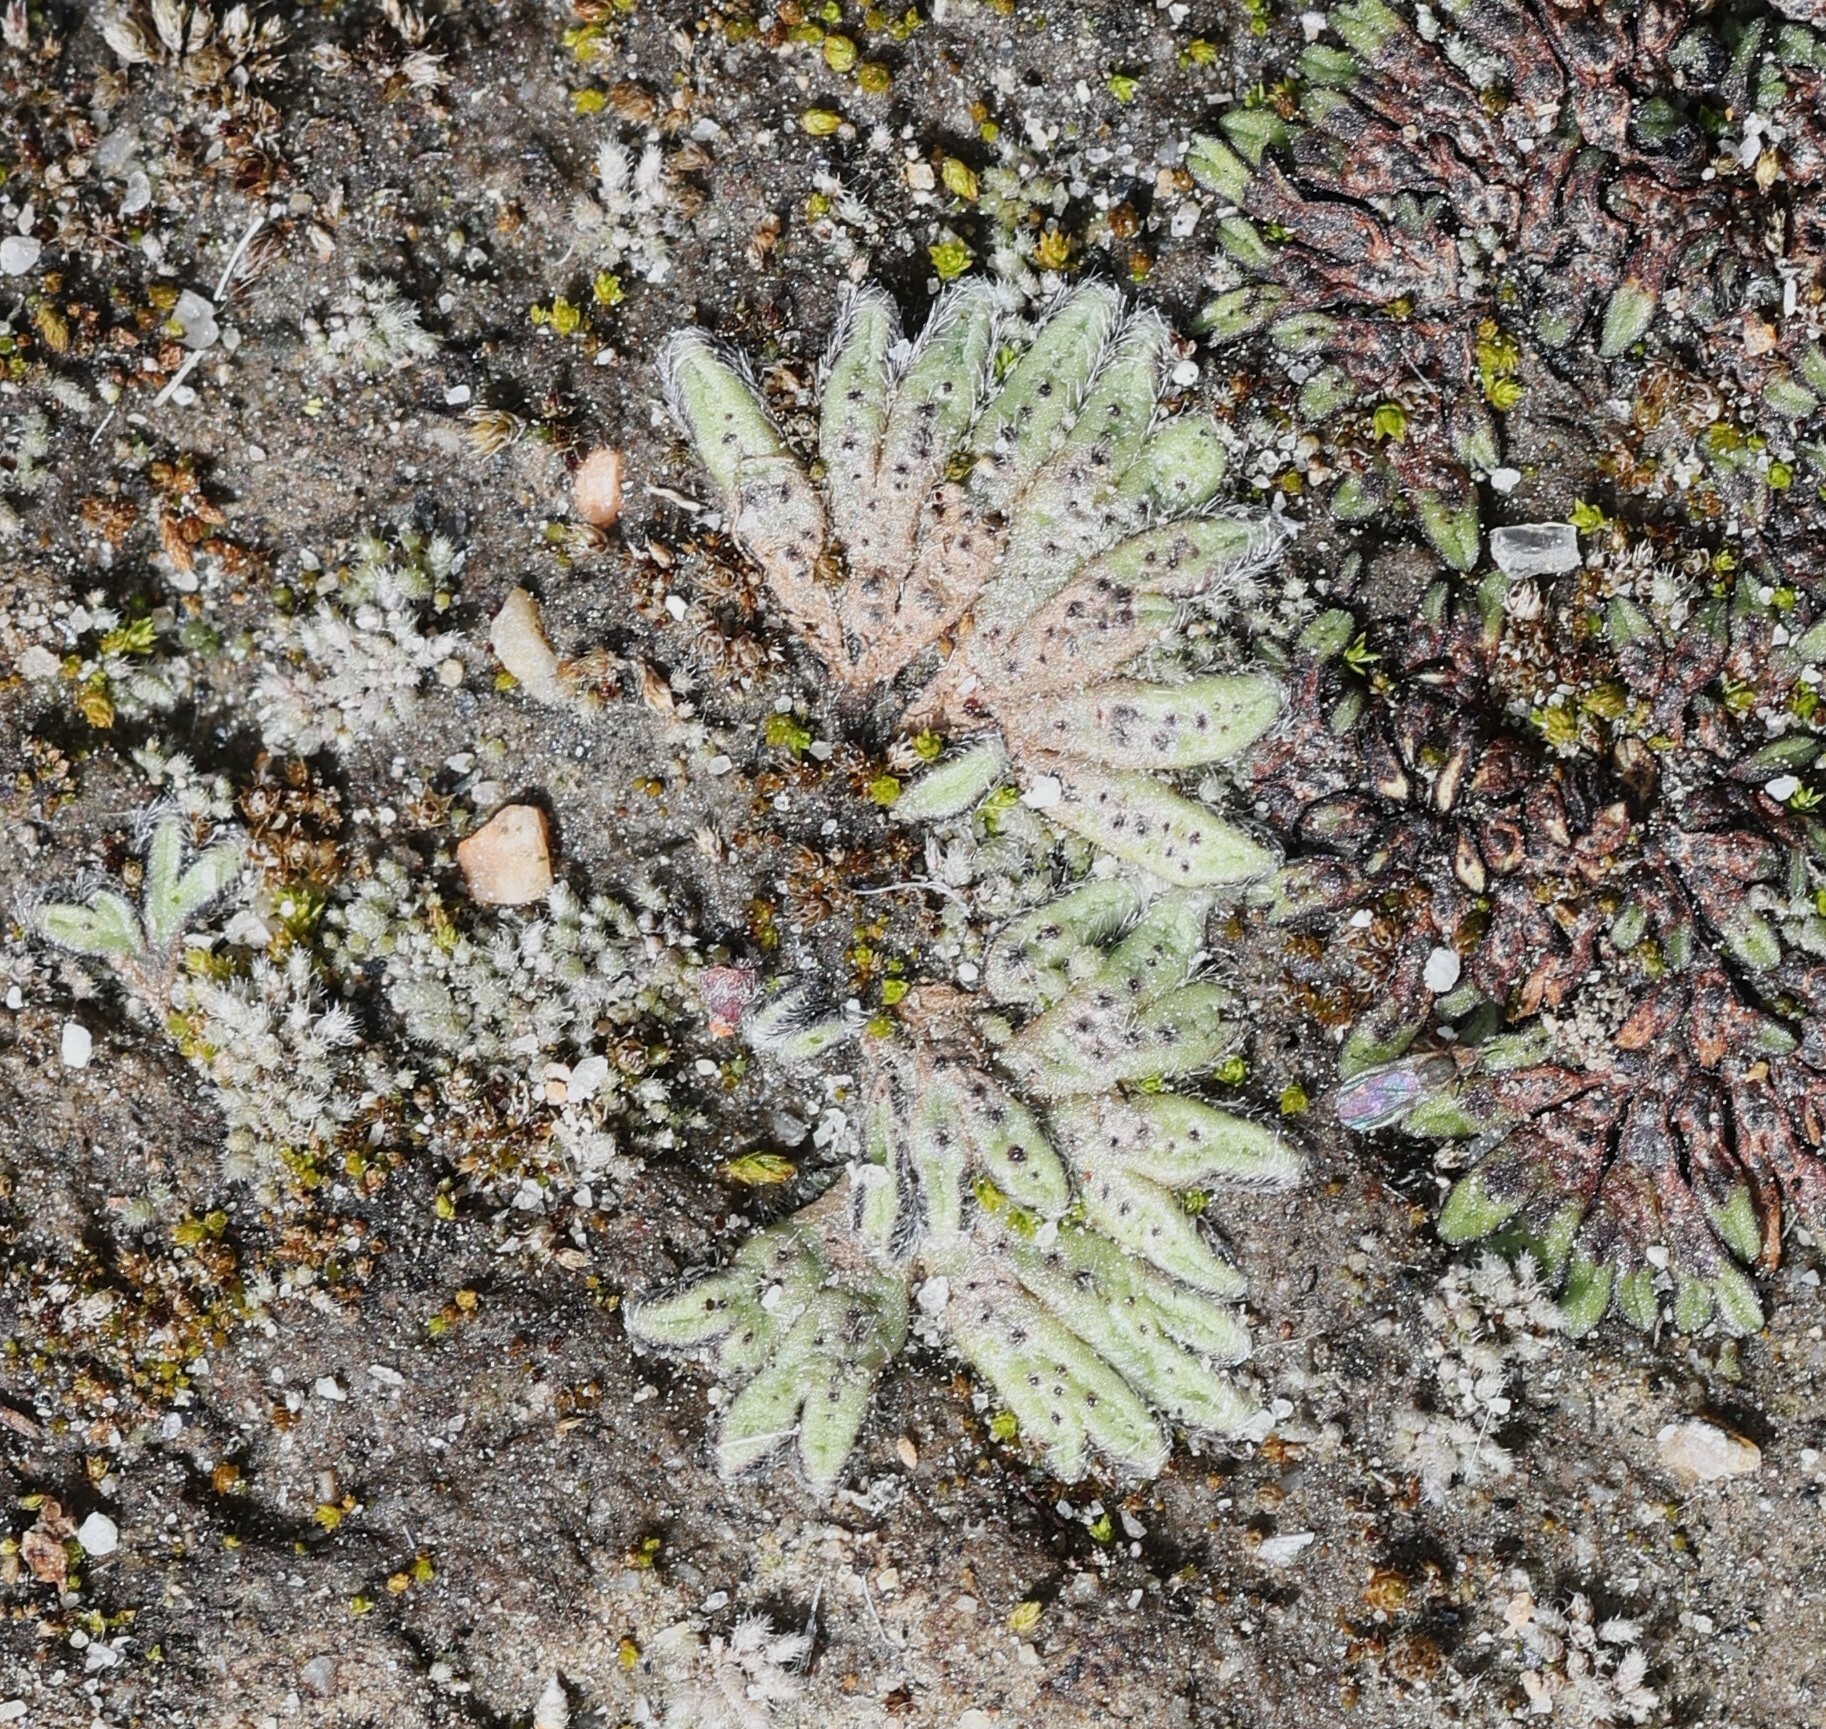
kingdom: Plantae
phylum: Marchantiophyta
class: Marchantiopsida
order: Marchantiales
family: Ricciaceae
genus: Riccia
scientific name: Riccia trichocarpa
